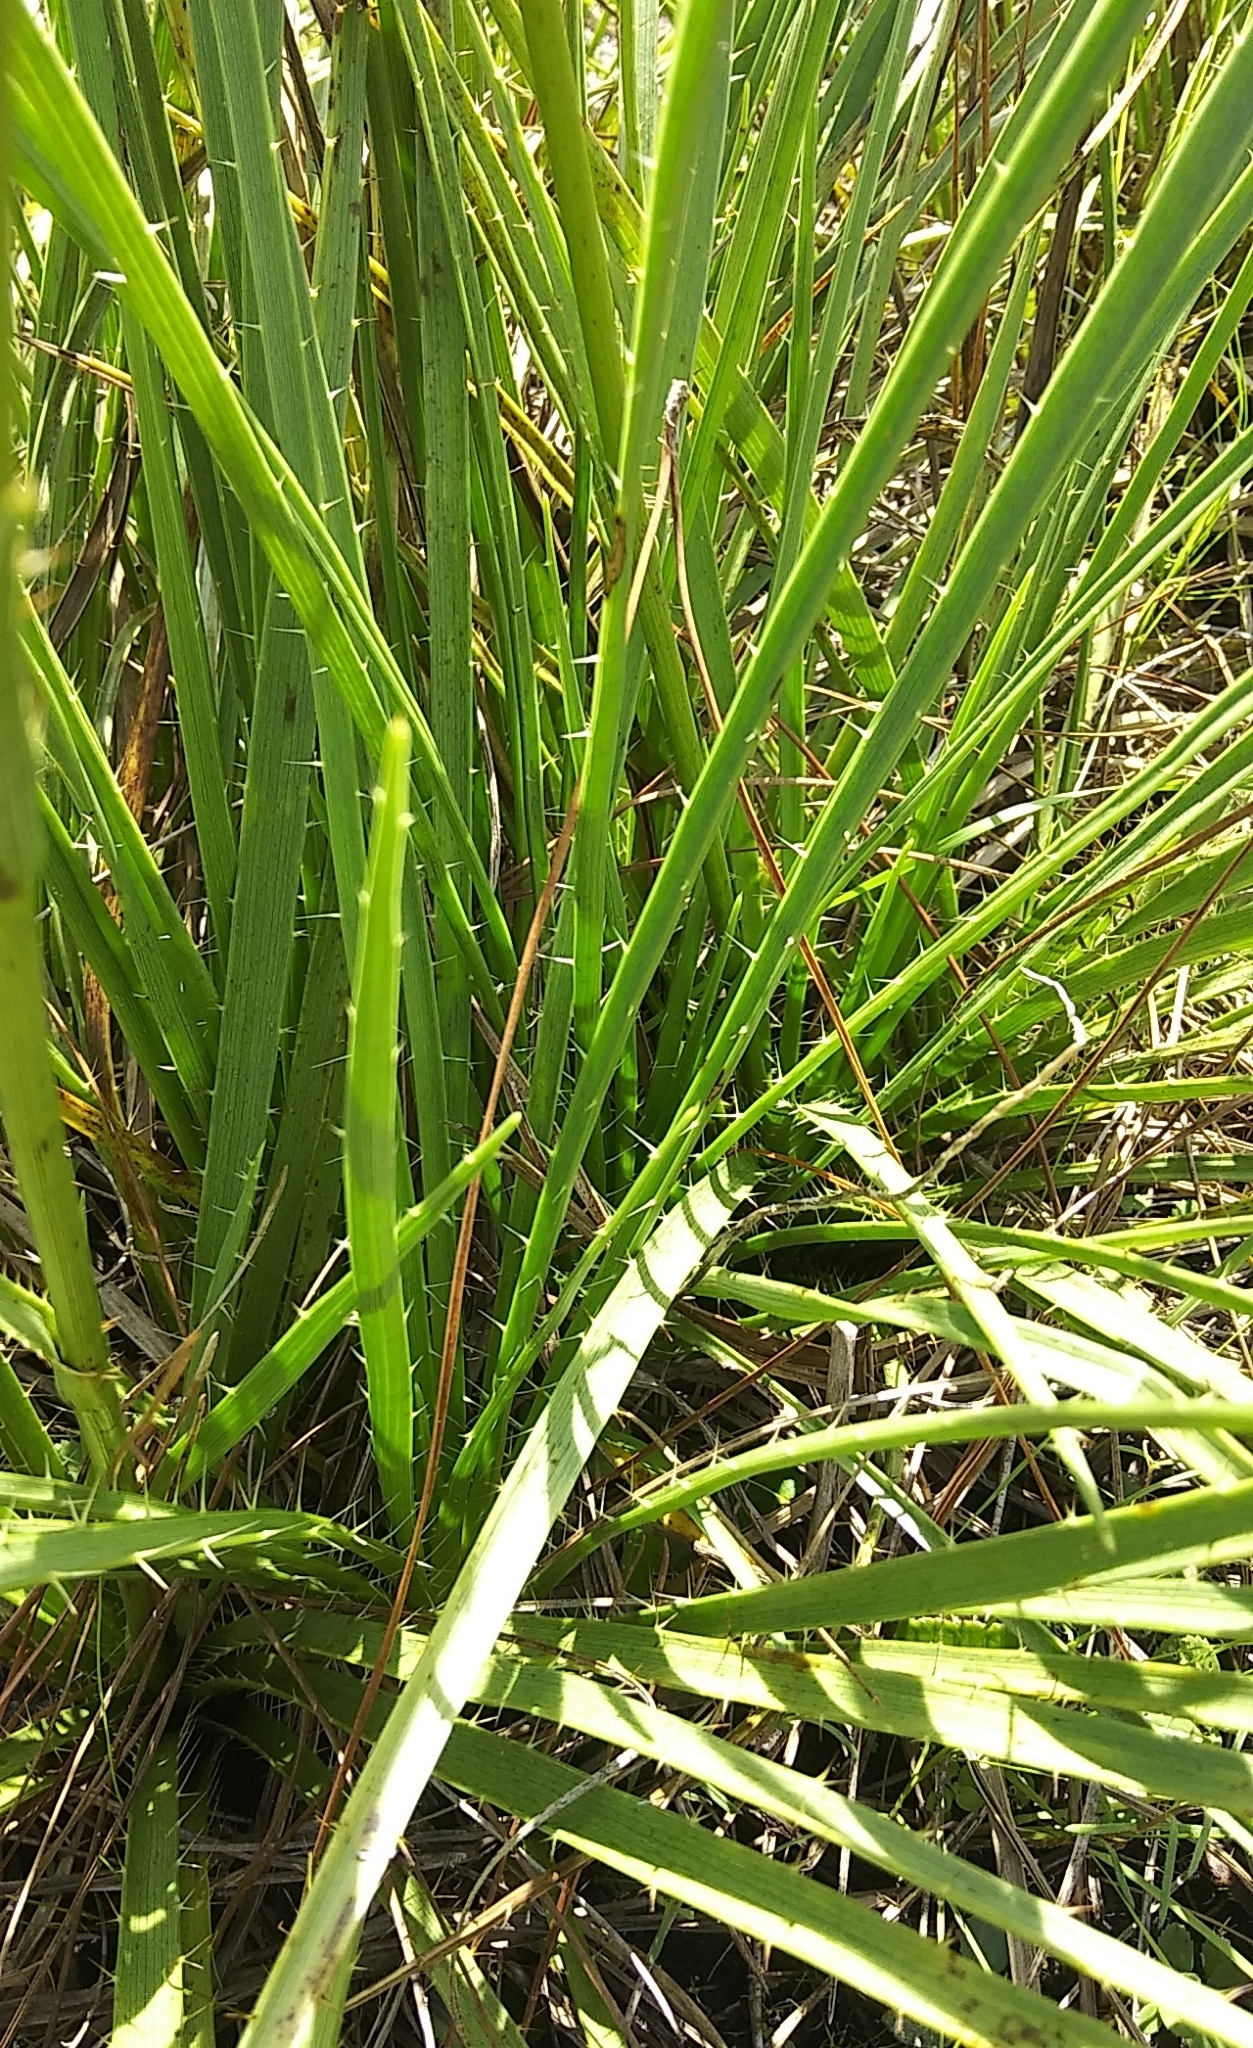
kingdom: Plantae
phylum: Tracheophyta
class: Magnoliopsida
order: Apiales
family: Apiaceae
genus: Eryngium
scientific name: Eryngium yuccifolium
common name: Button eryngo
